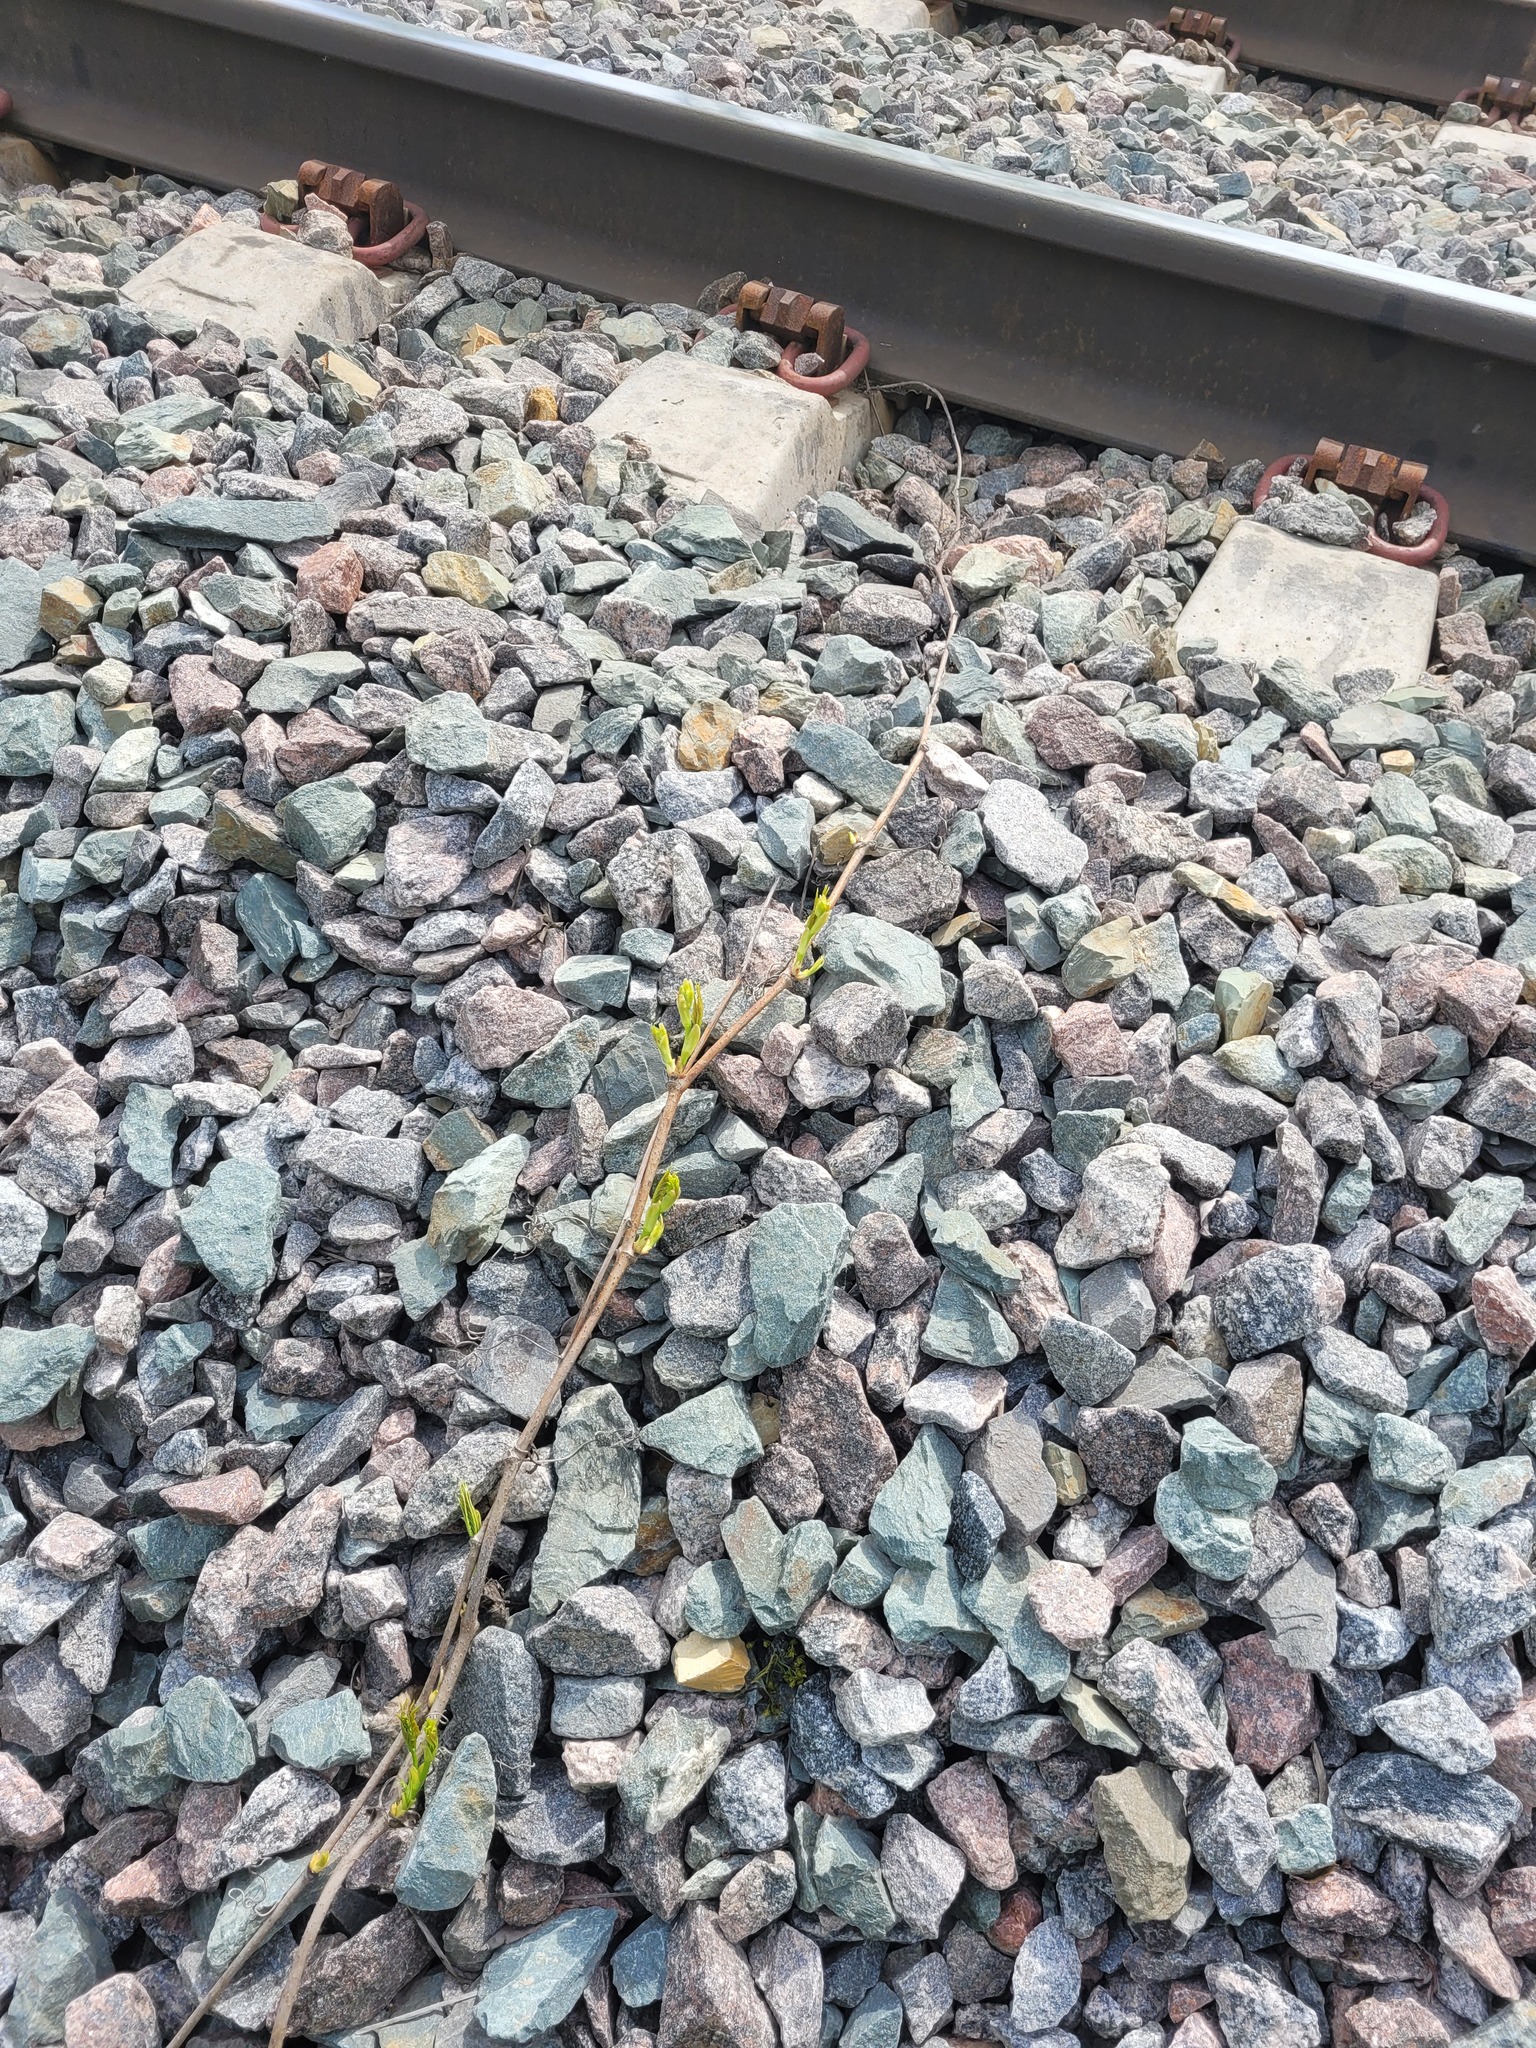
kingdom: Plantae
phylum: Tracheophyta
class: Magnoliopsida
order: Vitales
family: Vitaceae
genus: Parthenocissus
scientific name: Parthenocissus inserta
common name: False virginia-creeper
